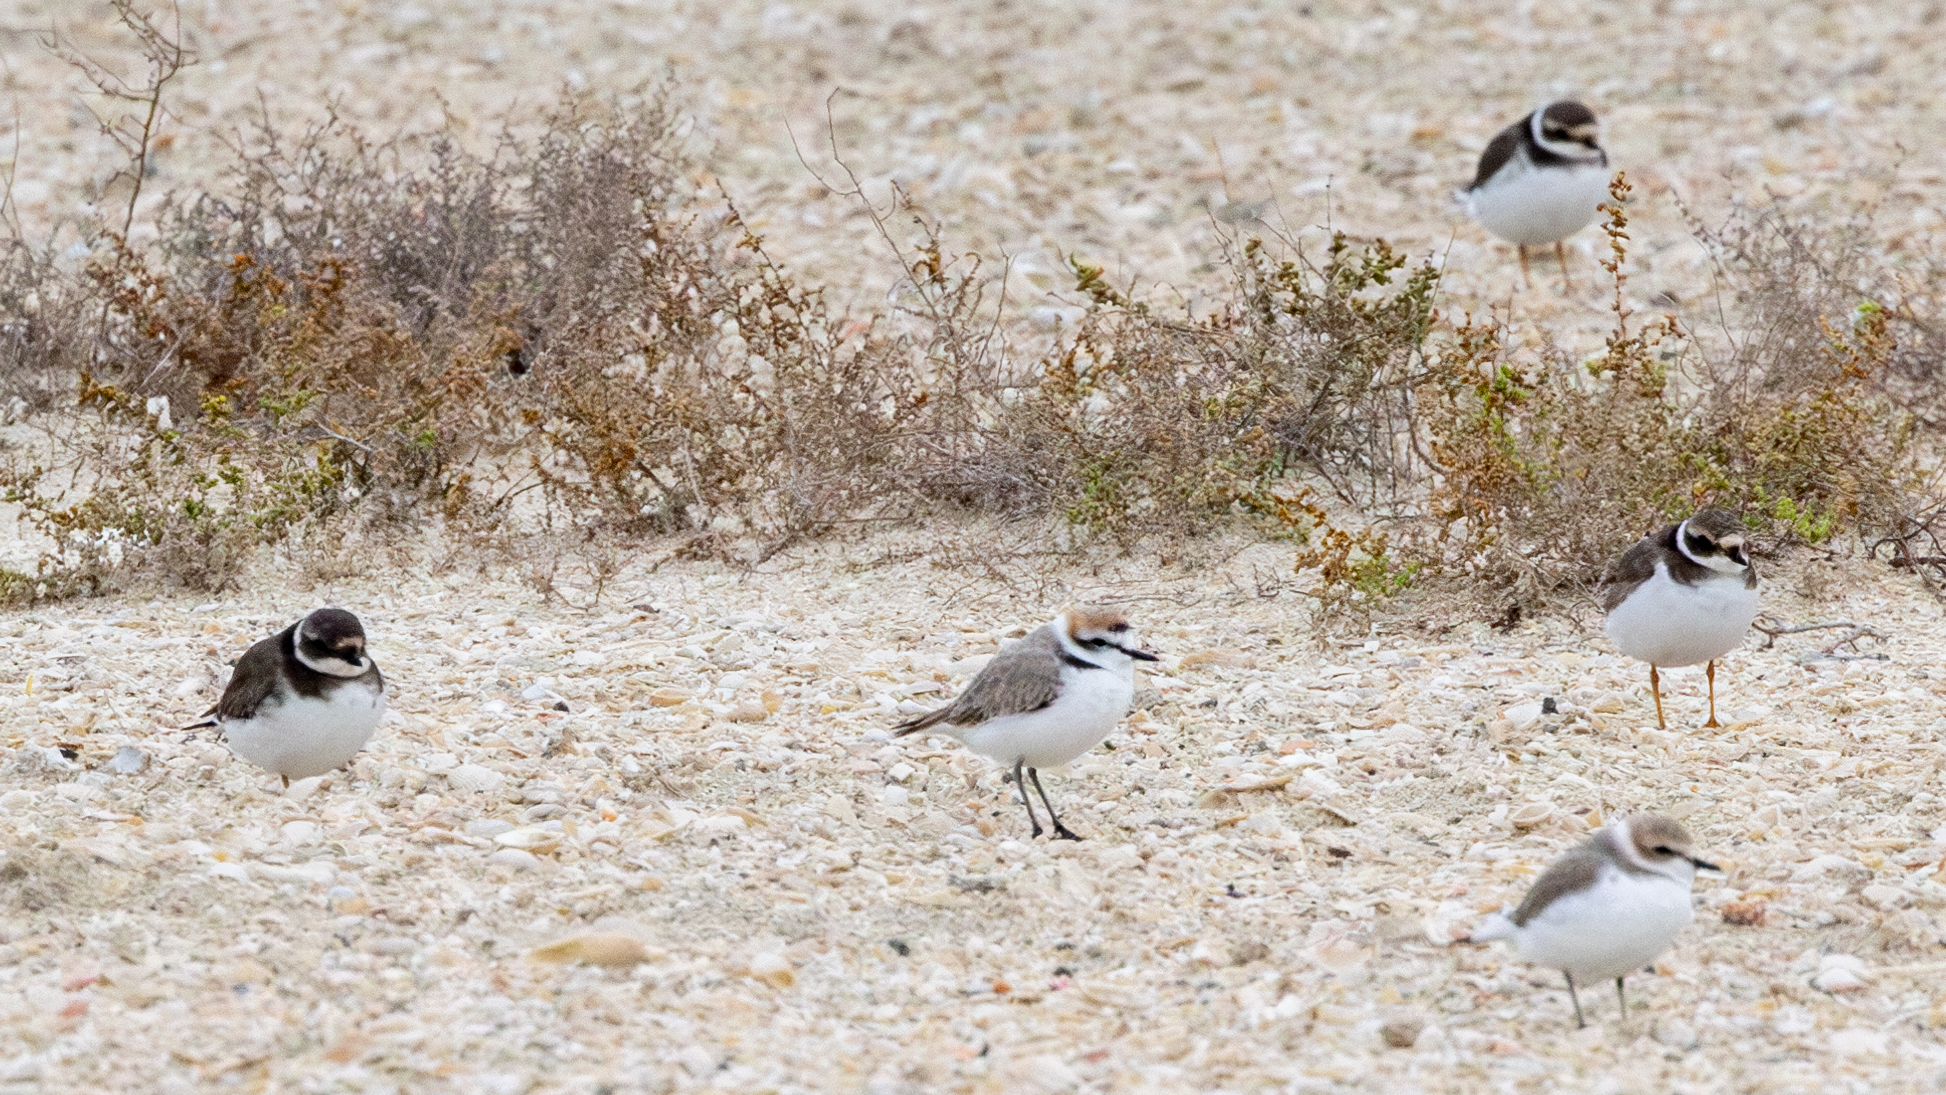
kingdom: Animalia
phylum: Chordata
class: Aves
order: Charadriiformes
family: Charadriidae
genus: Charadrius
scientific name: Charadrius alexandrinus
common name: Kentish plover
